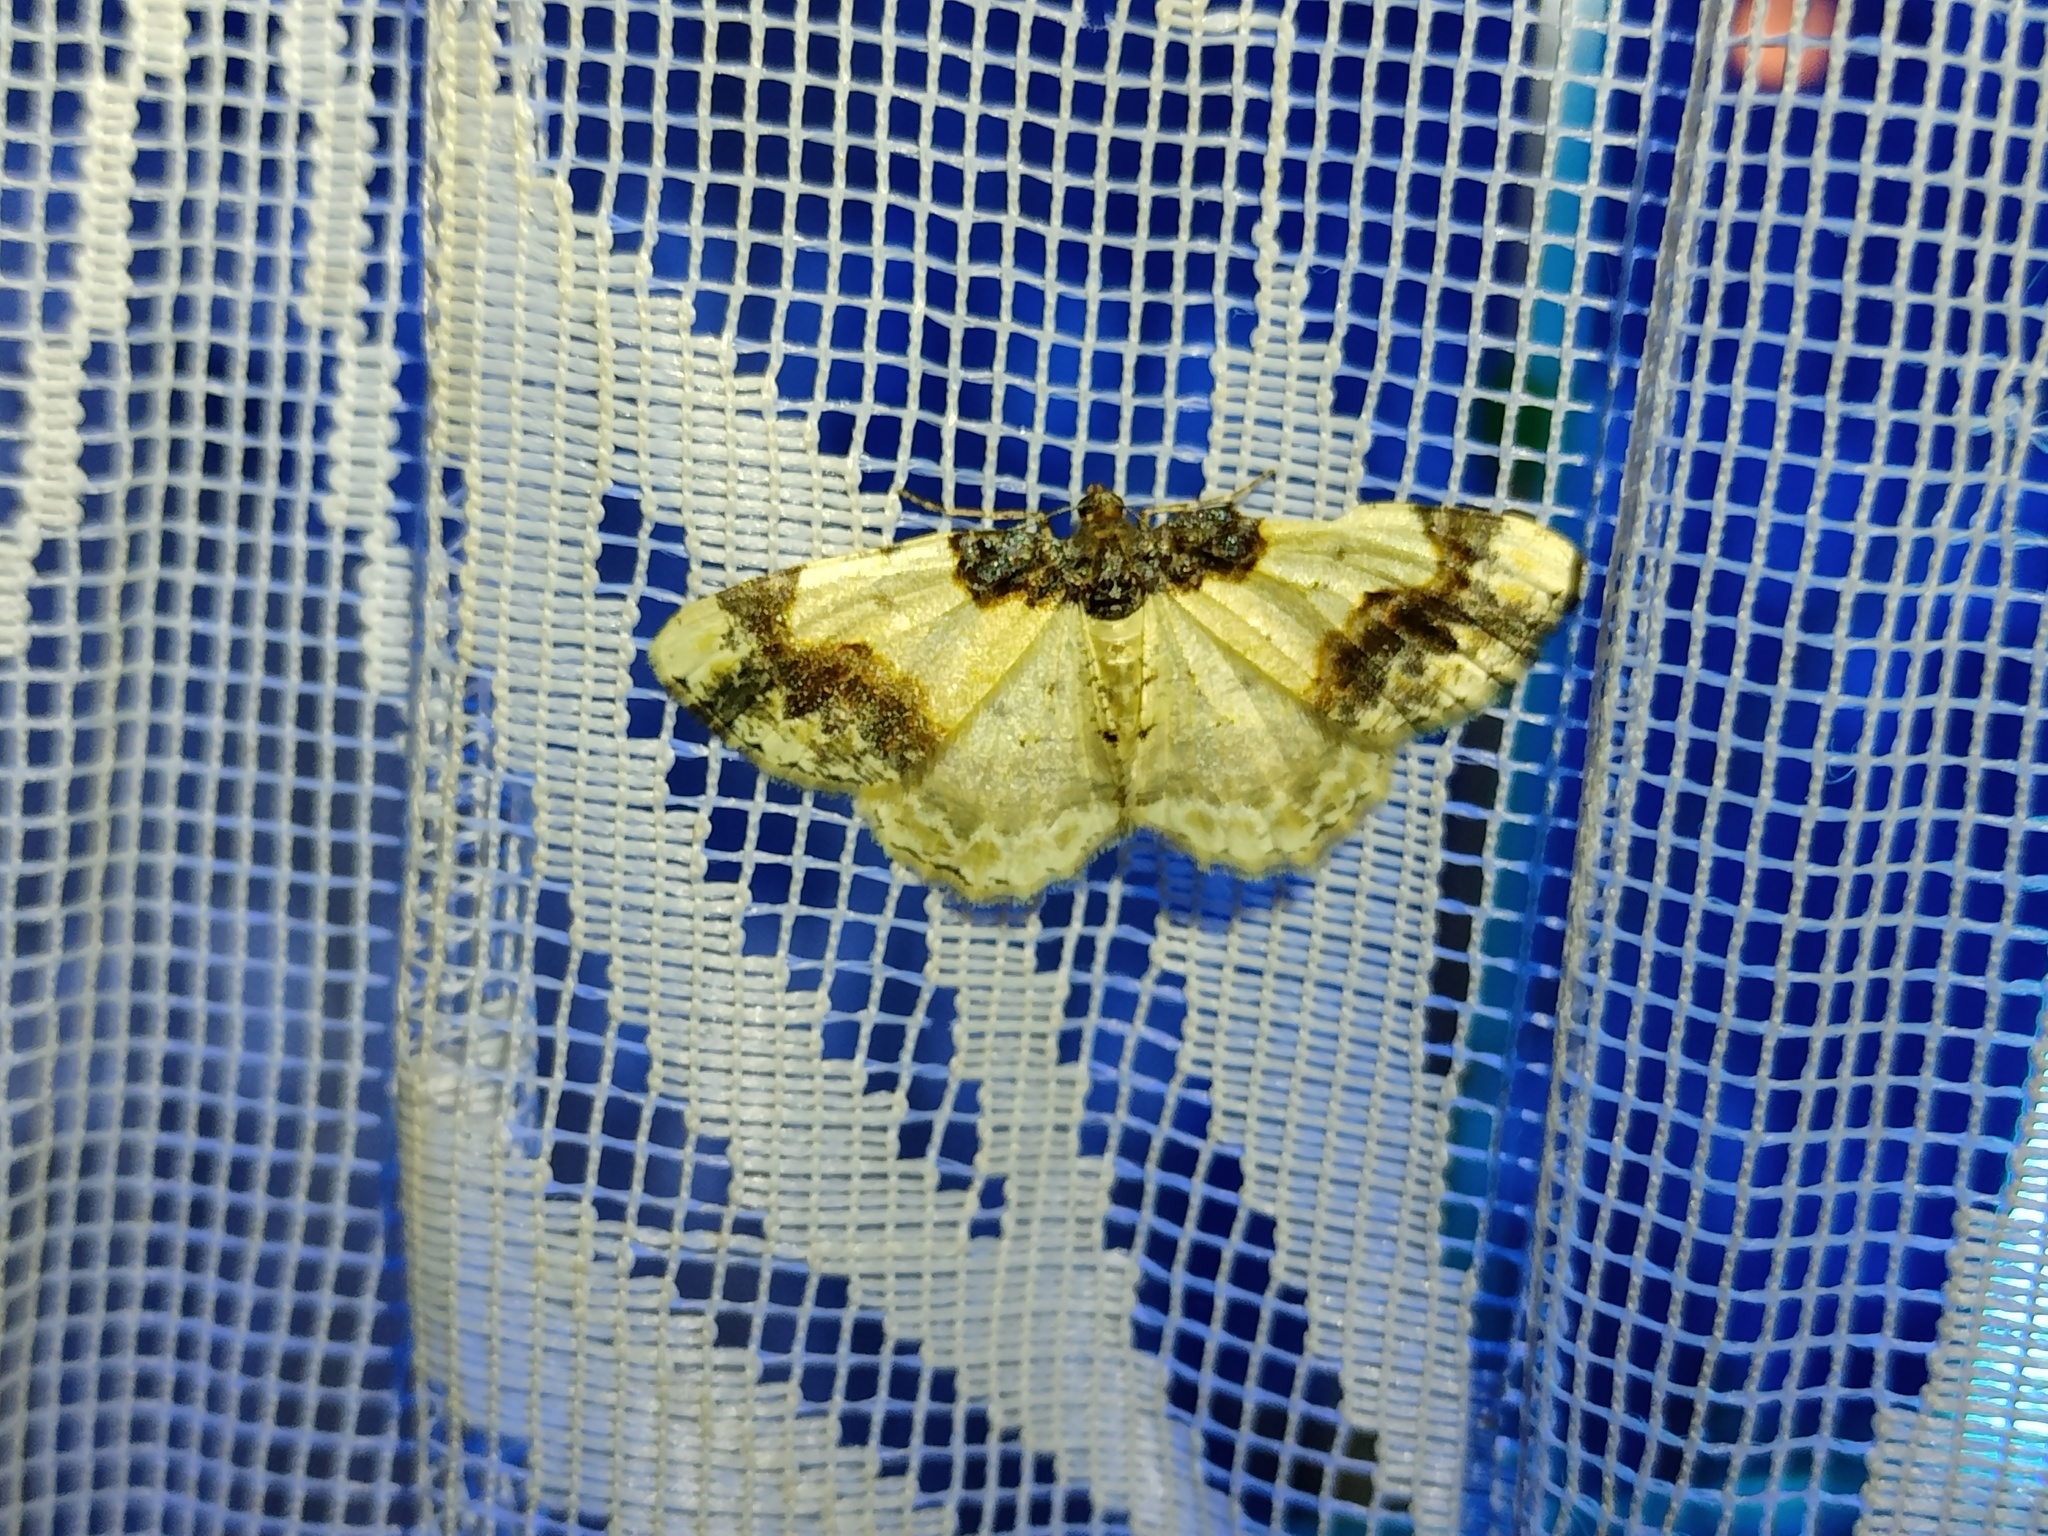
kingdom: Animalia
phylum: Arthropoda
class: Insecta
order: Lepidoptera
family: Geometridae
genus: Ligdia
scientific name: Ligdia adustata
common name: Scorched carpet
